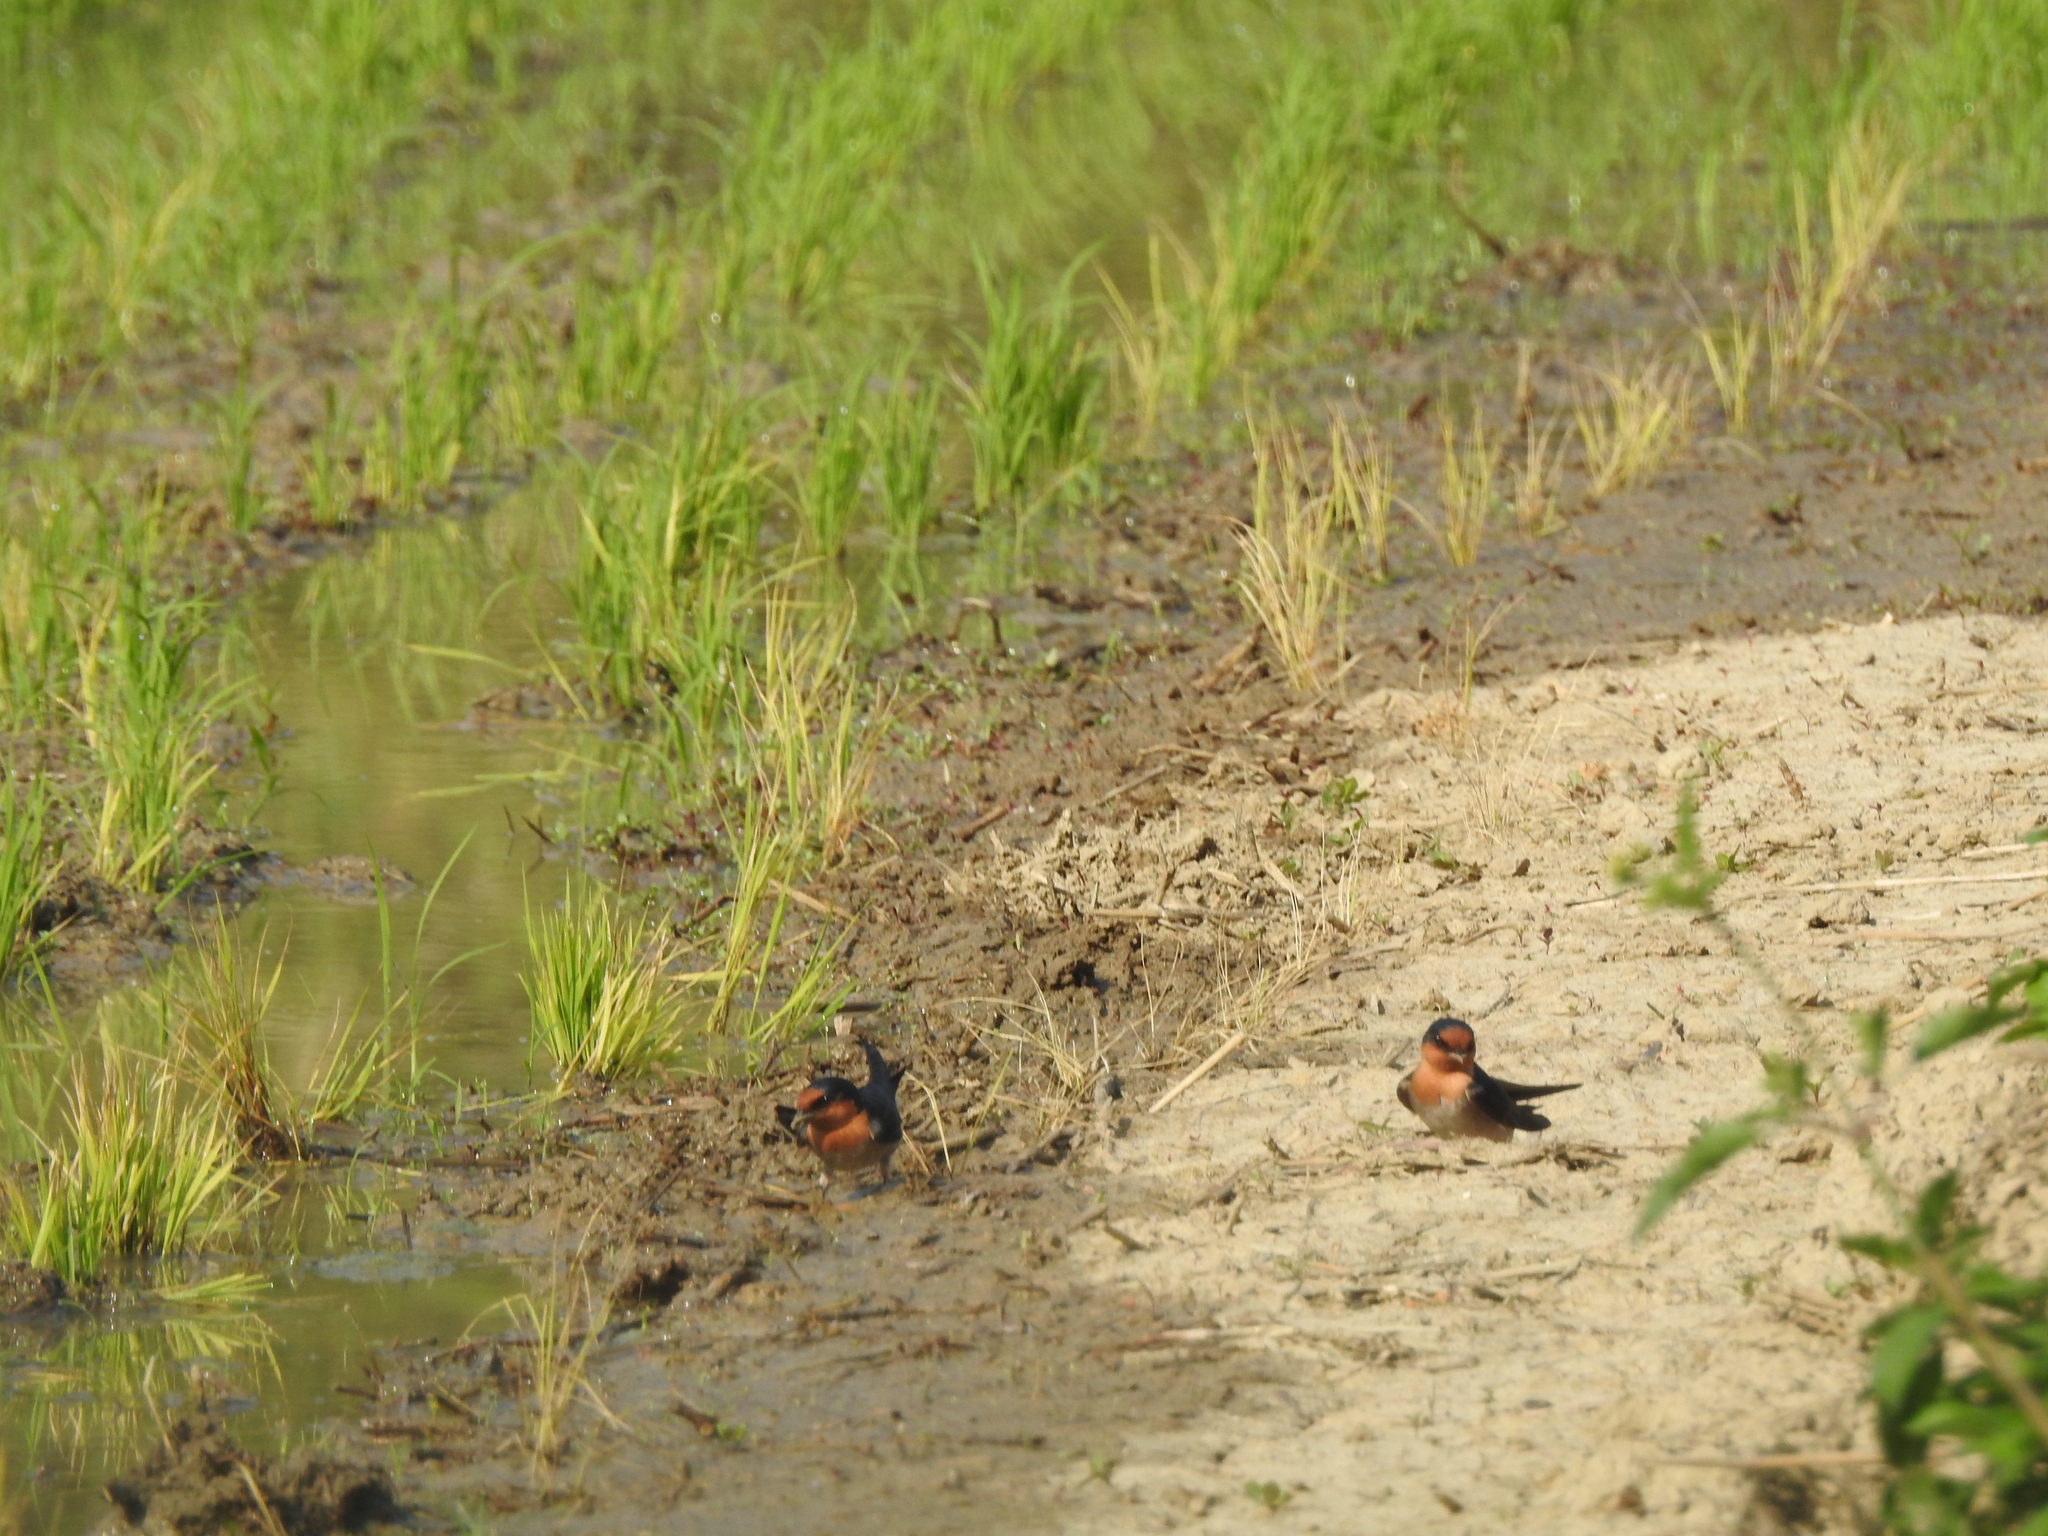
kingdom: Animalia
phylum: Chordata
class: Aves
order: Passeriformes
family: Hirundinidae
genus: Hirundo
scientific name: Hirundo tahitica
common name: Pacific swallow
